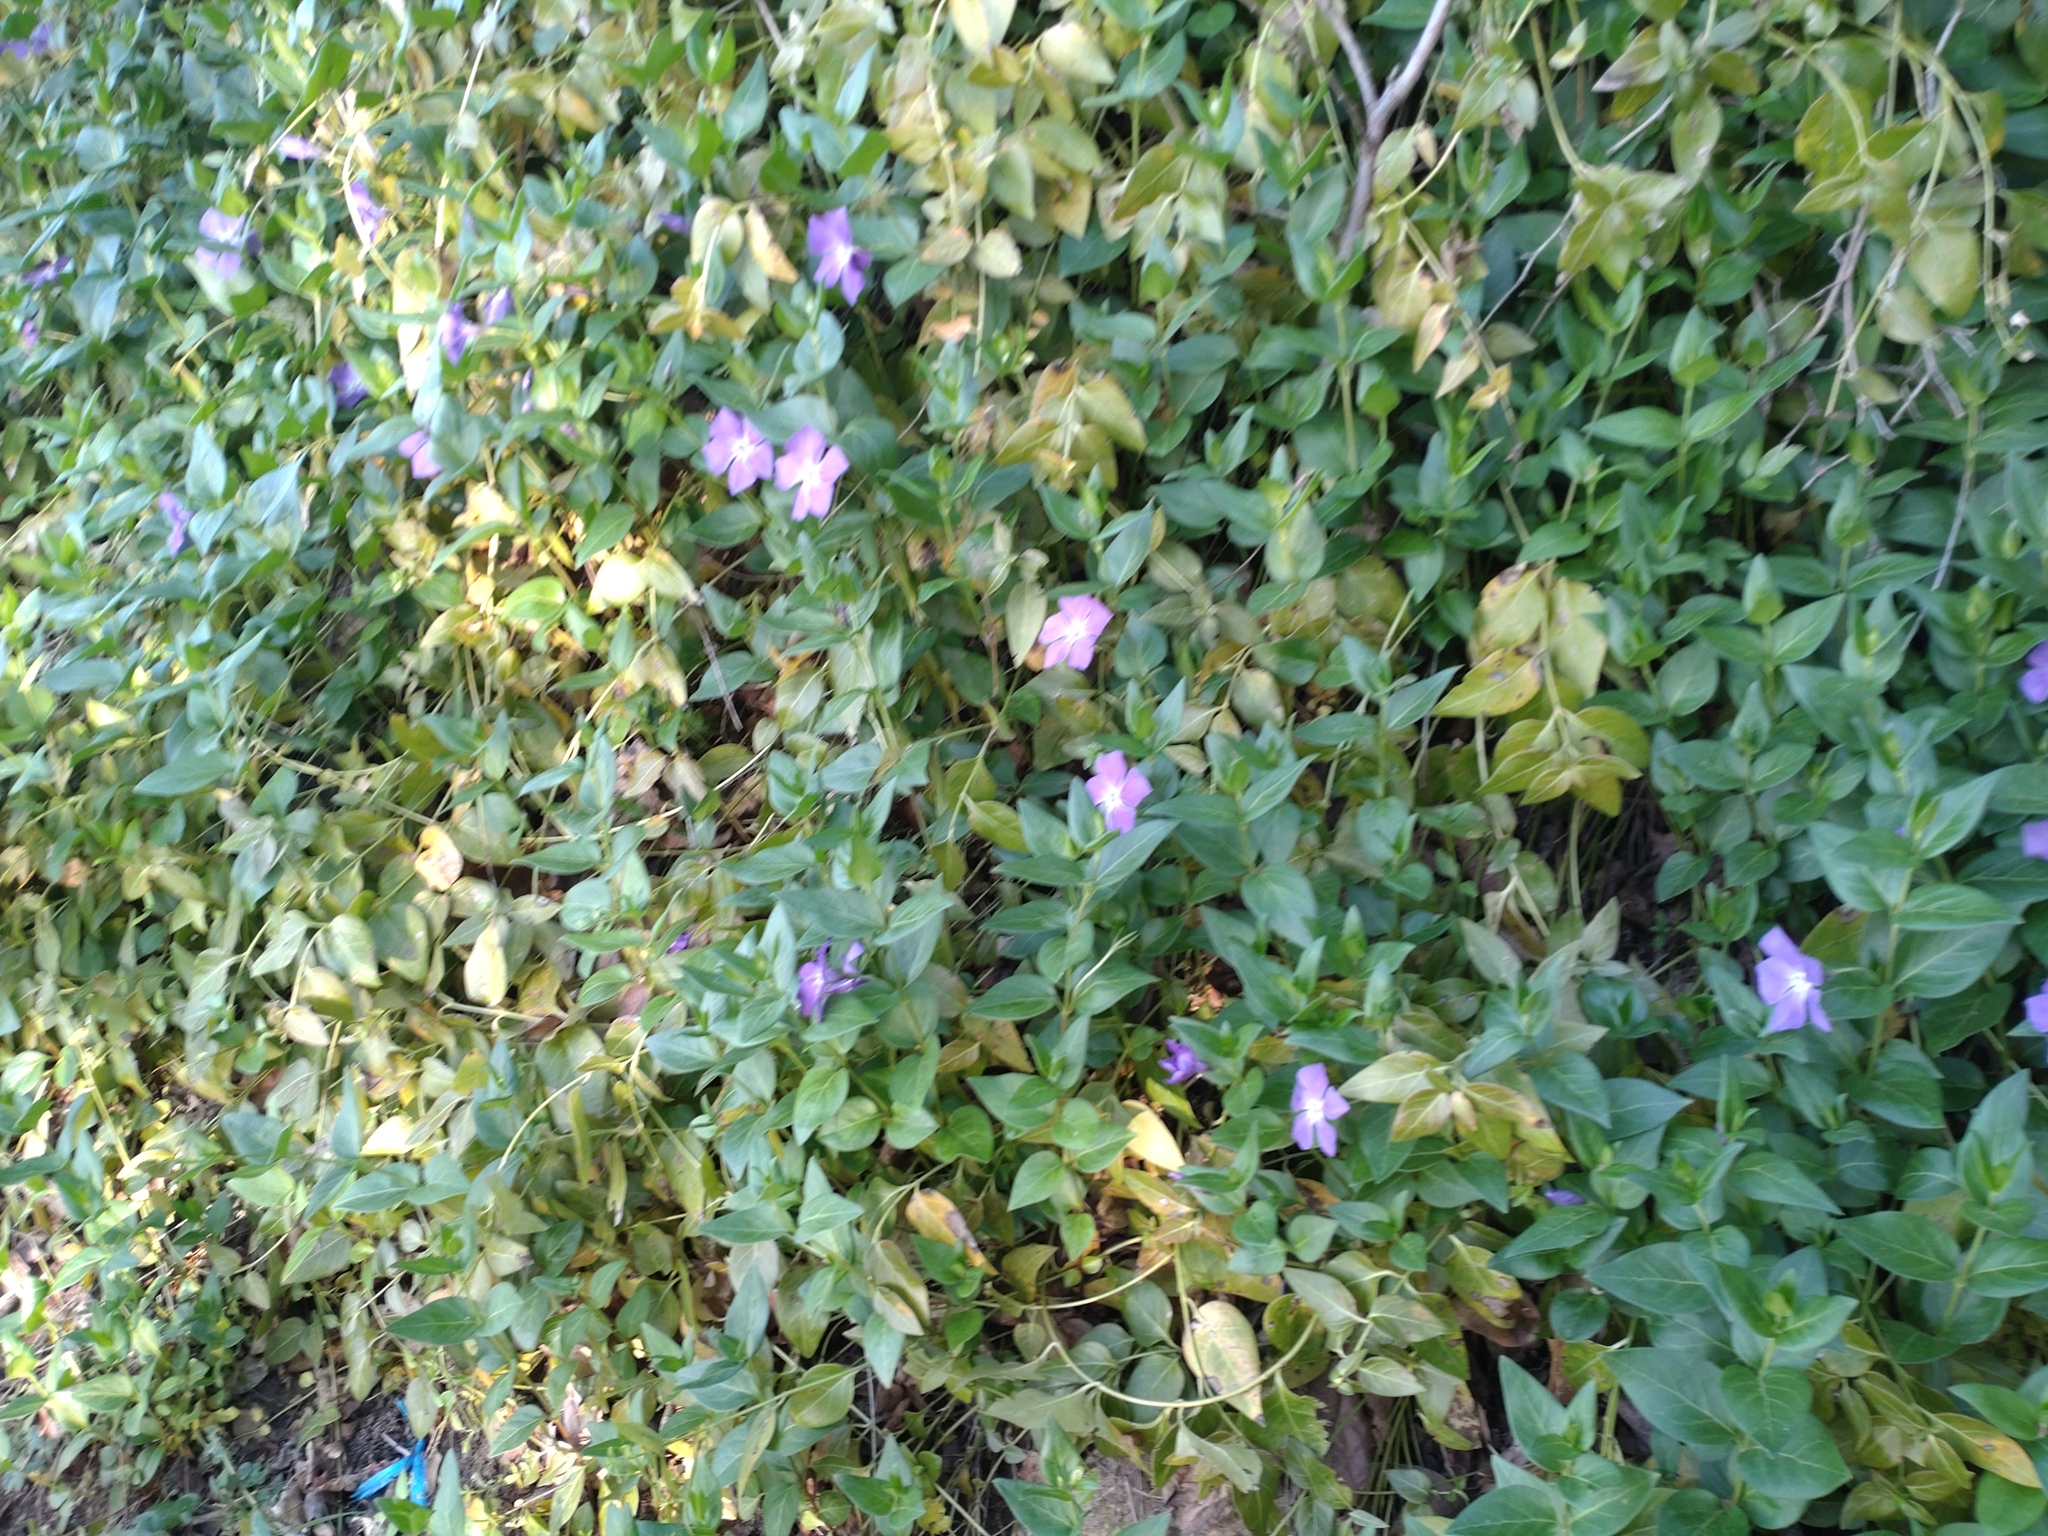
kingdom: Plantae
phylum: Tracheophyta
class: Magnoliopsida
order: Gentianales
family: Apocynaceae
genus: Vinca
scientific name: Vinca major
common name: Greater periwinkle
